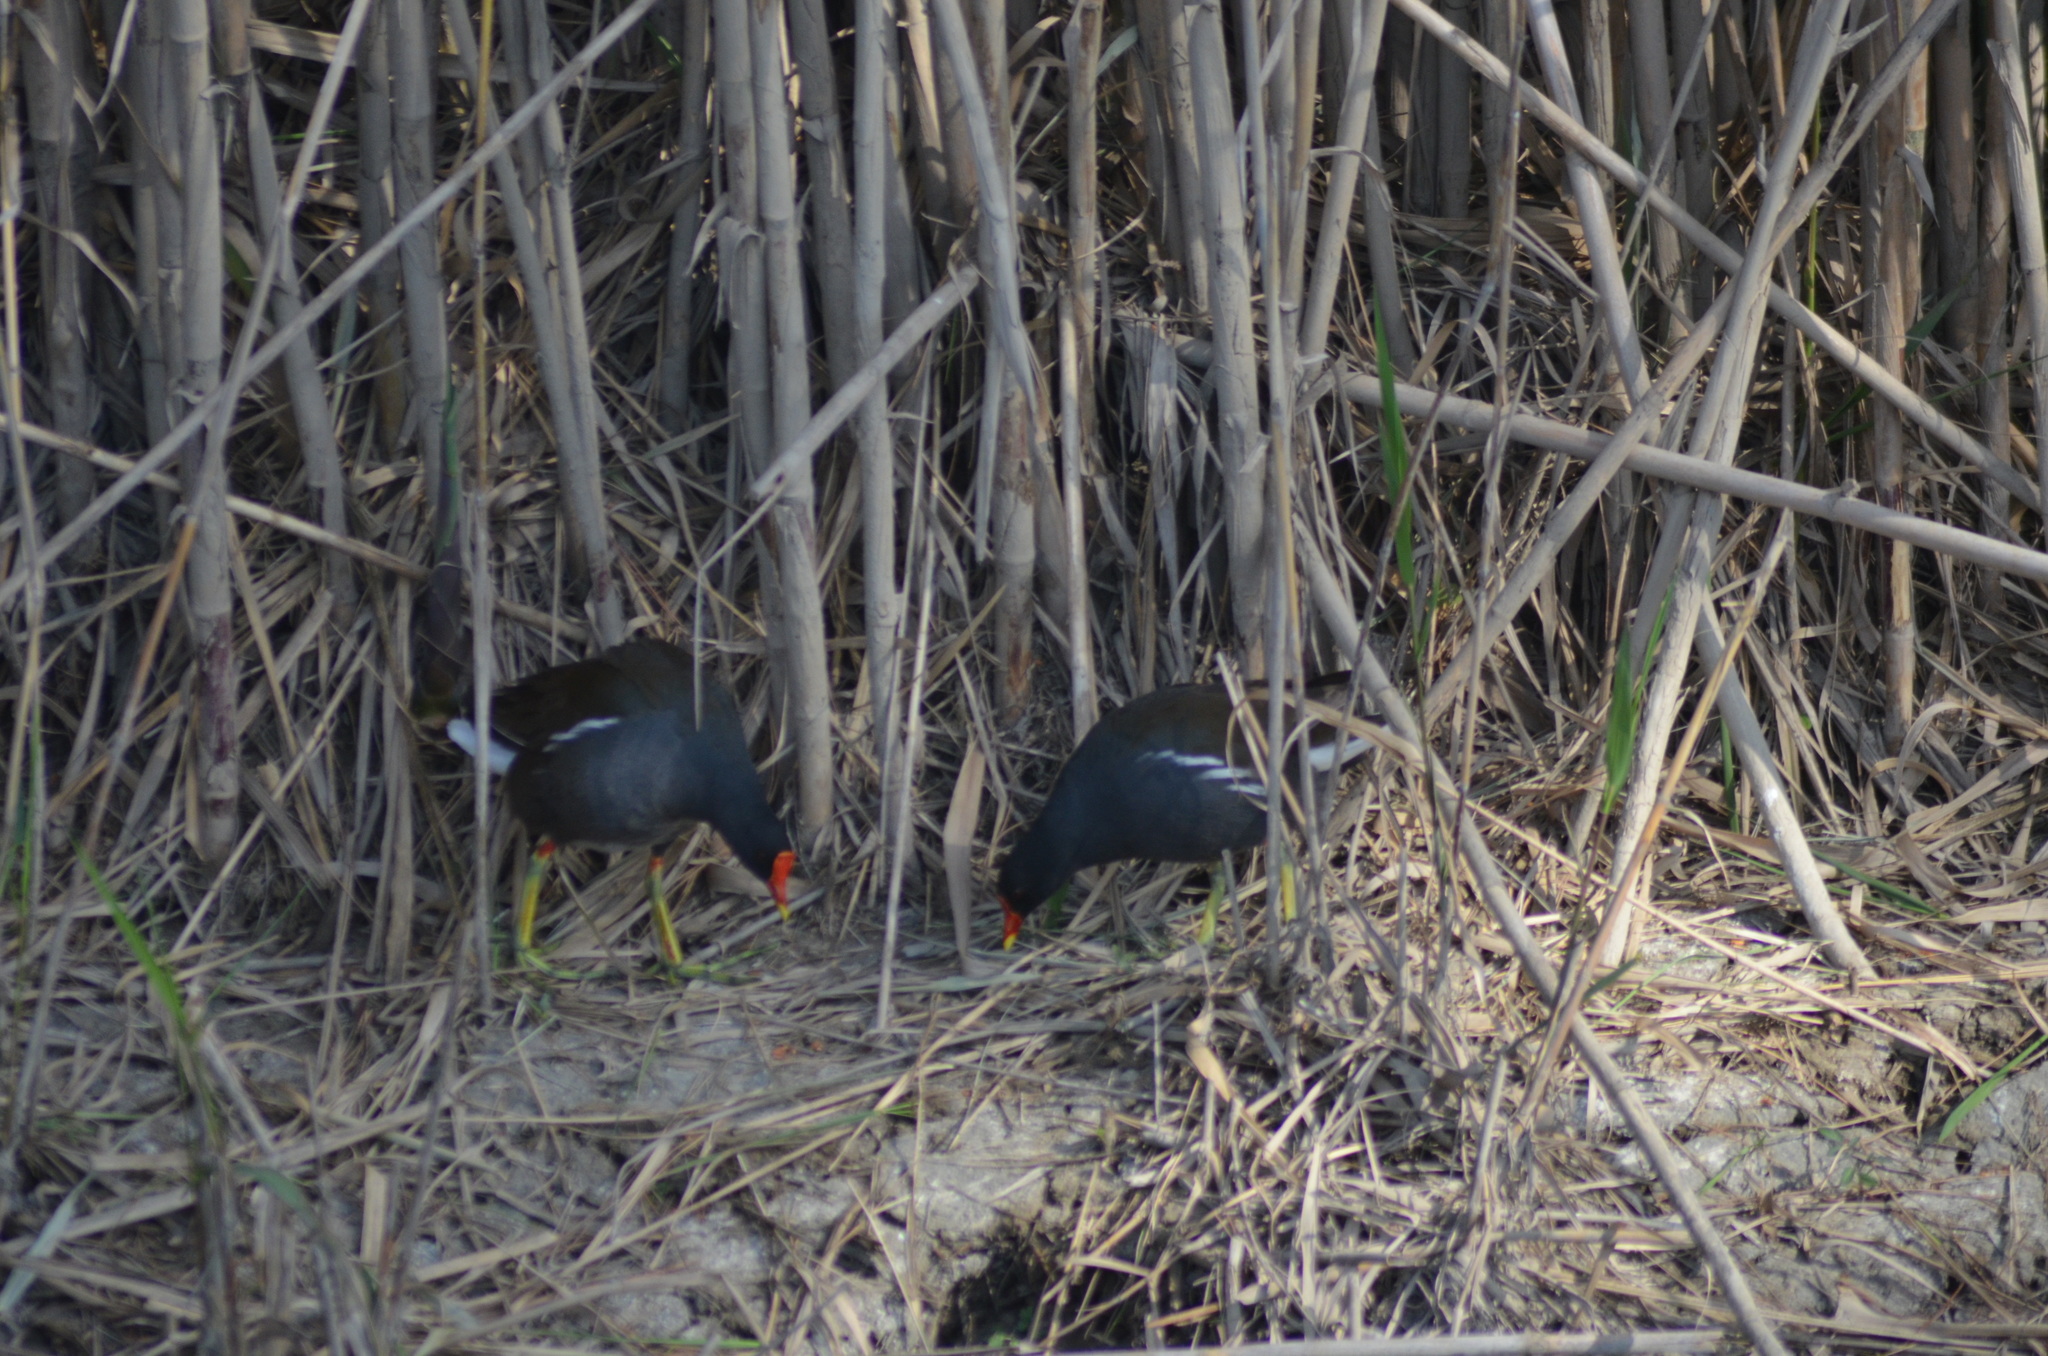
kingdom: Animalia
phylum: Chordata
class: Aves
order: Gruiformes
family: Rallidae
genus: Gallinula
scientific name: Gallinula chloropus
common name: Common moorhen
